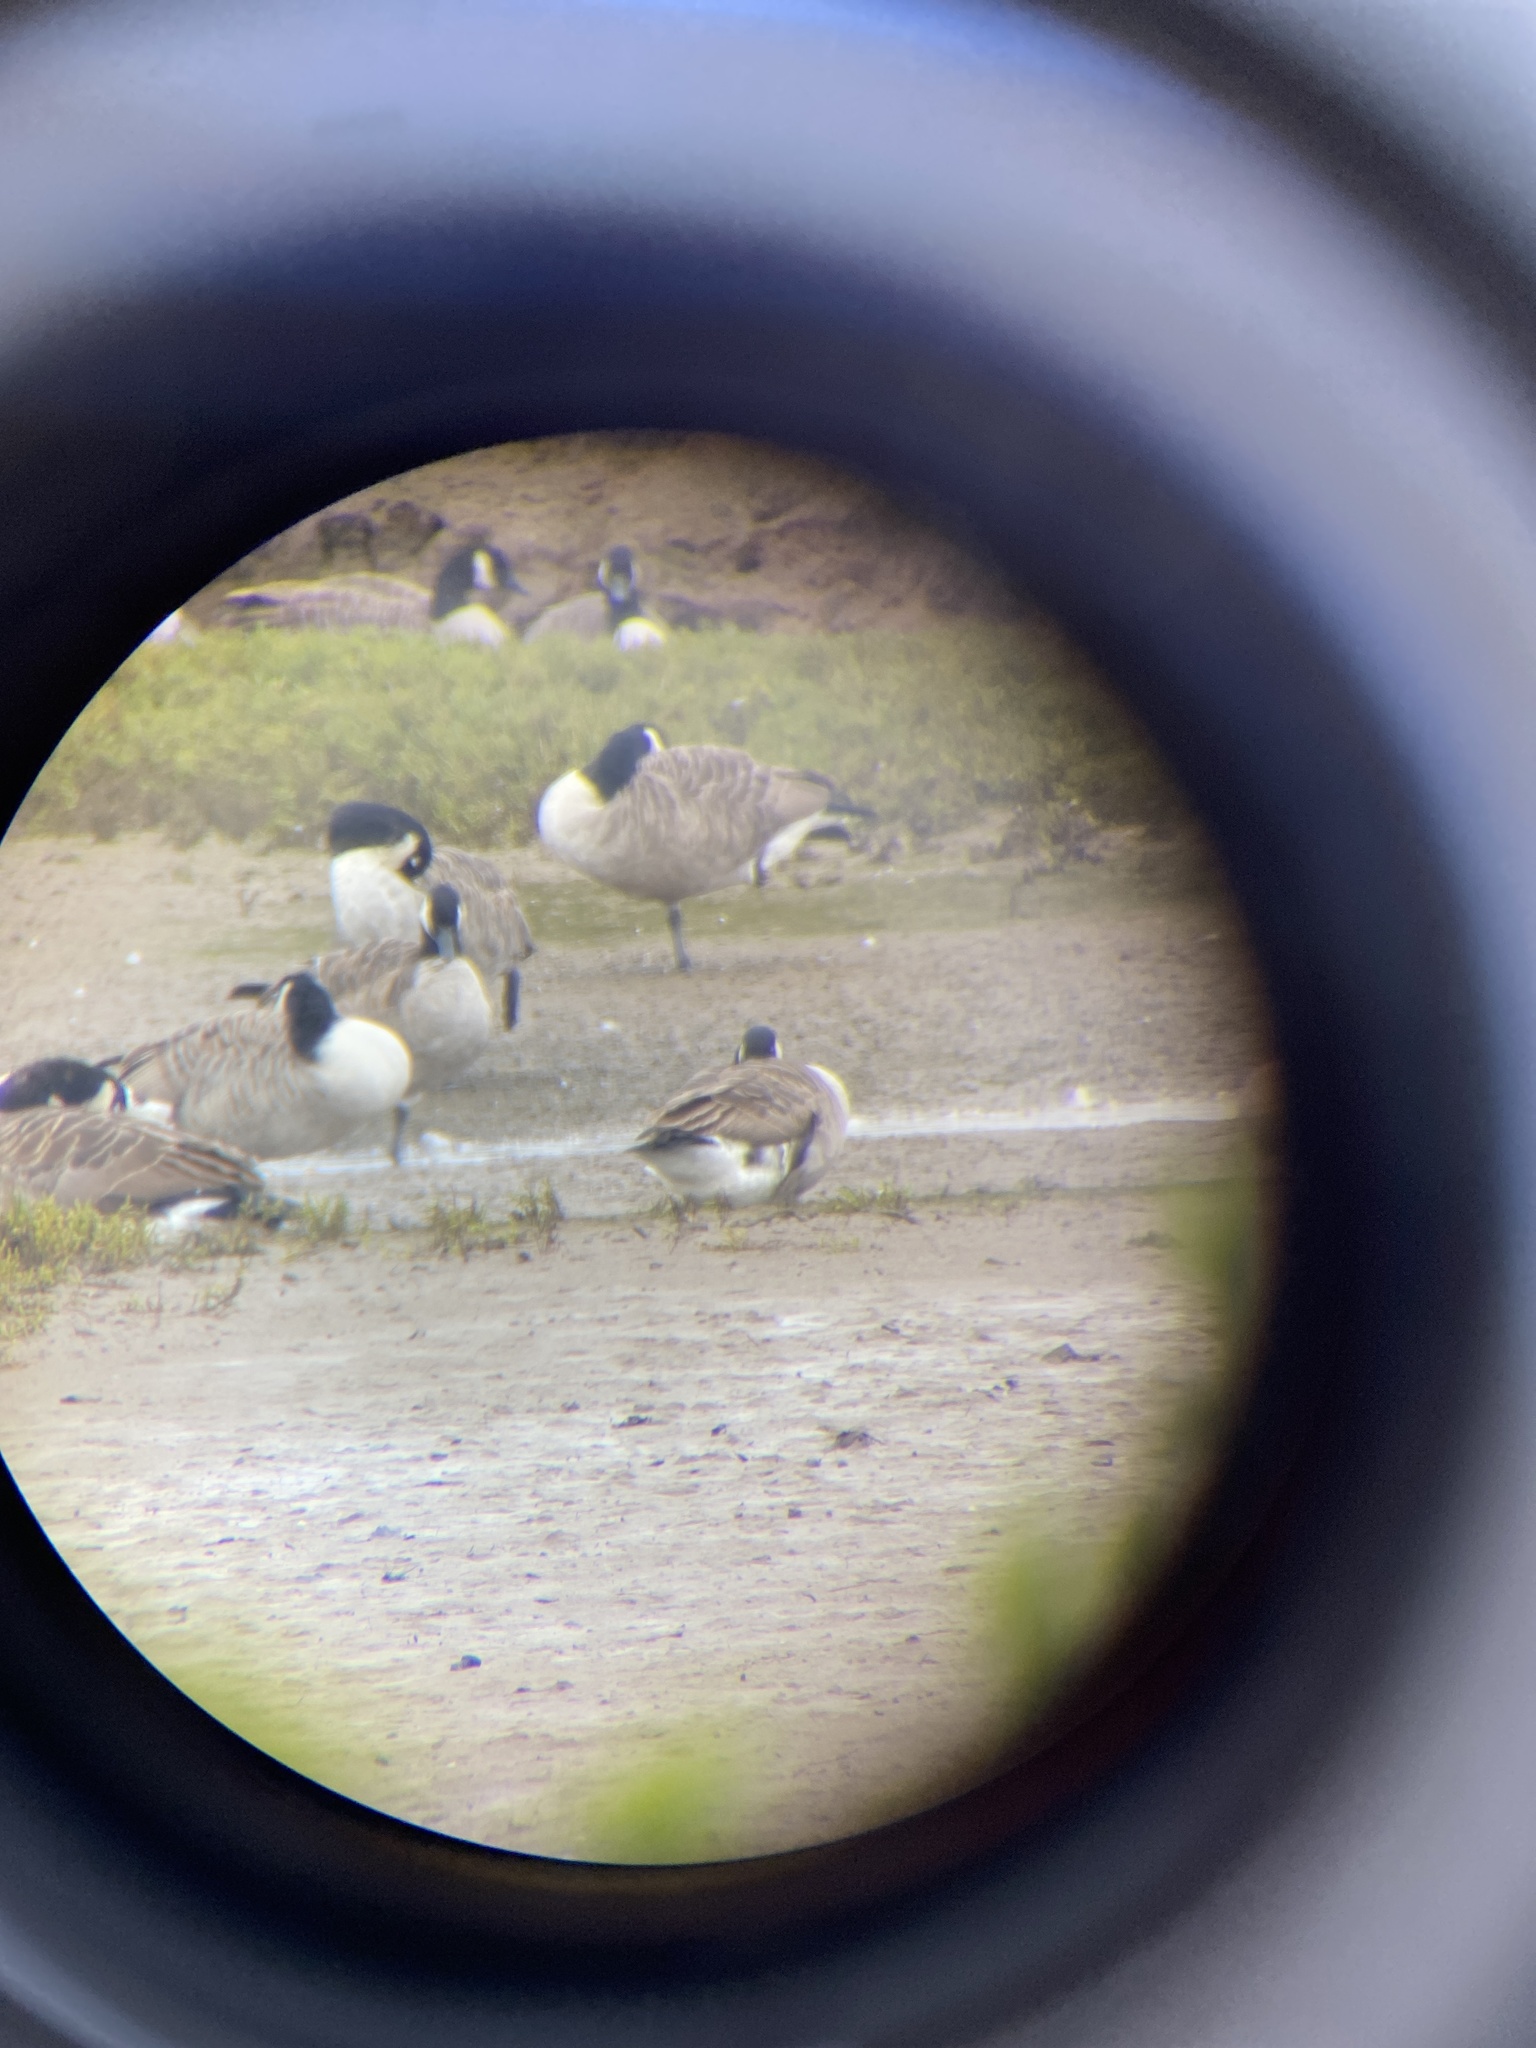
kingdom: Animalia
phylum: Chordata
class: Aves
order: Anseriformes
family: Anatidae
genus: Branta
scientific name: Branta canadensis
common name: Canada goose
